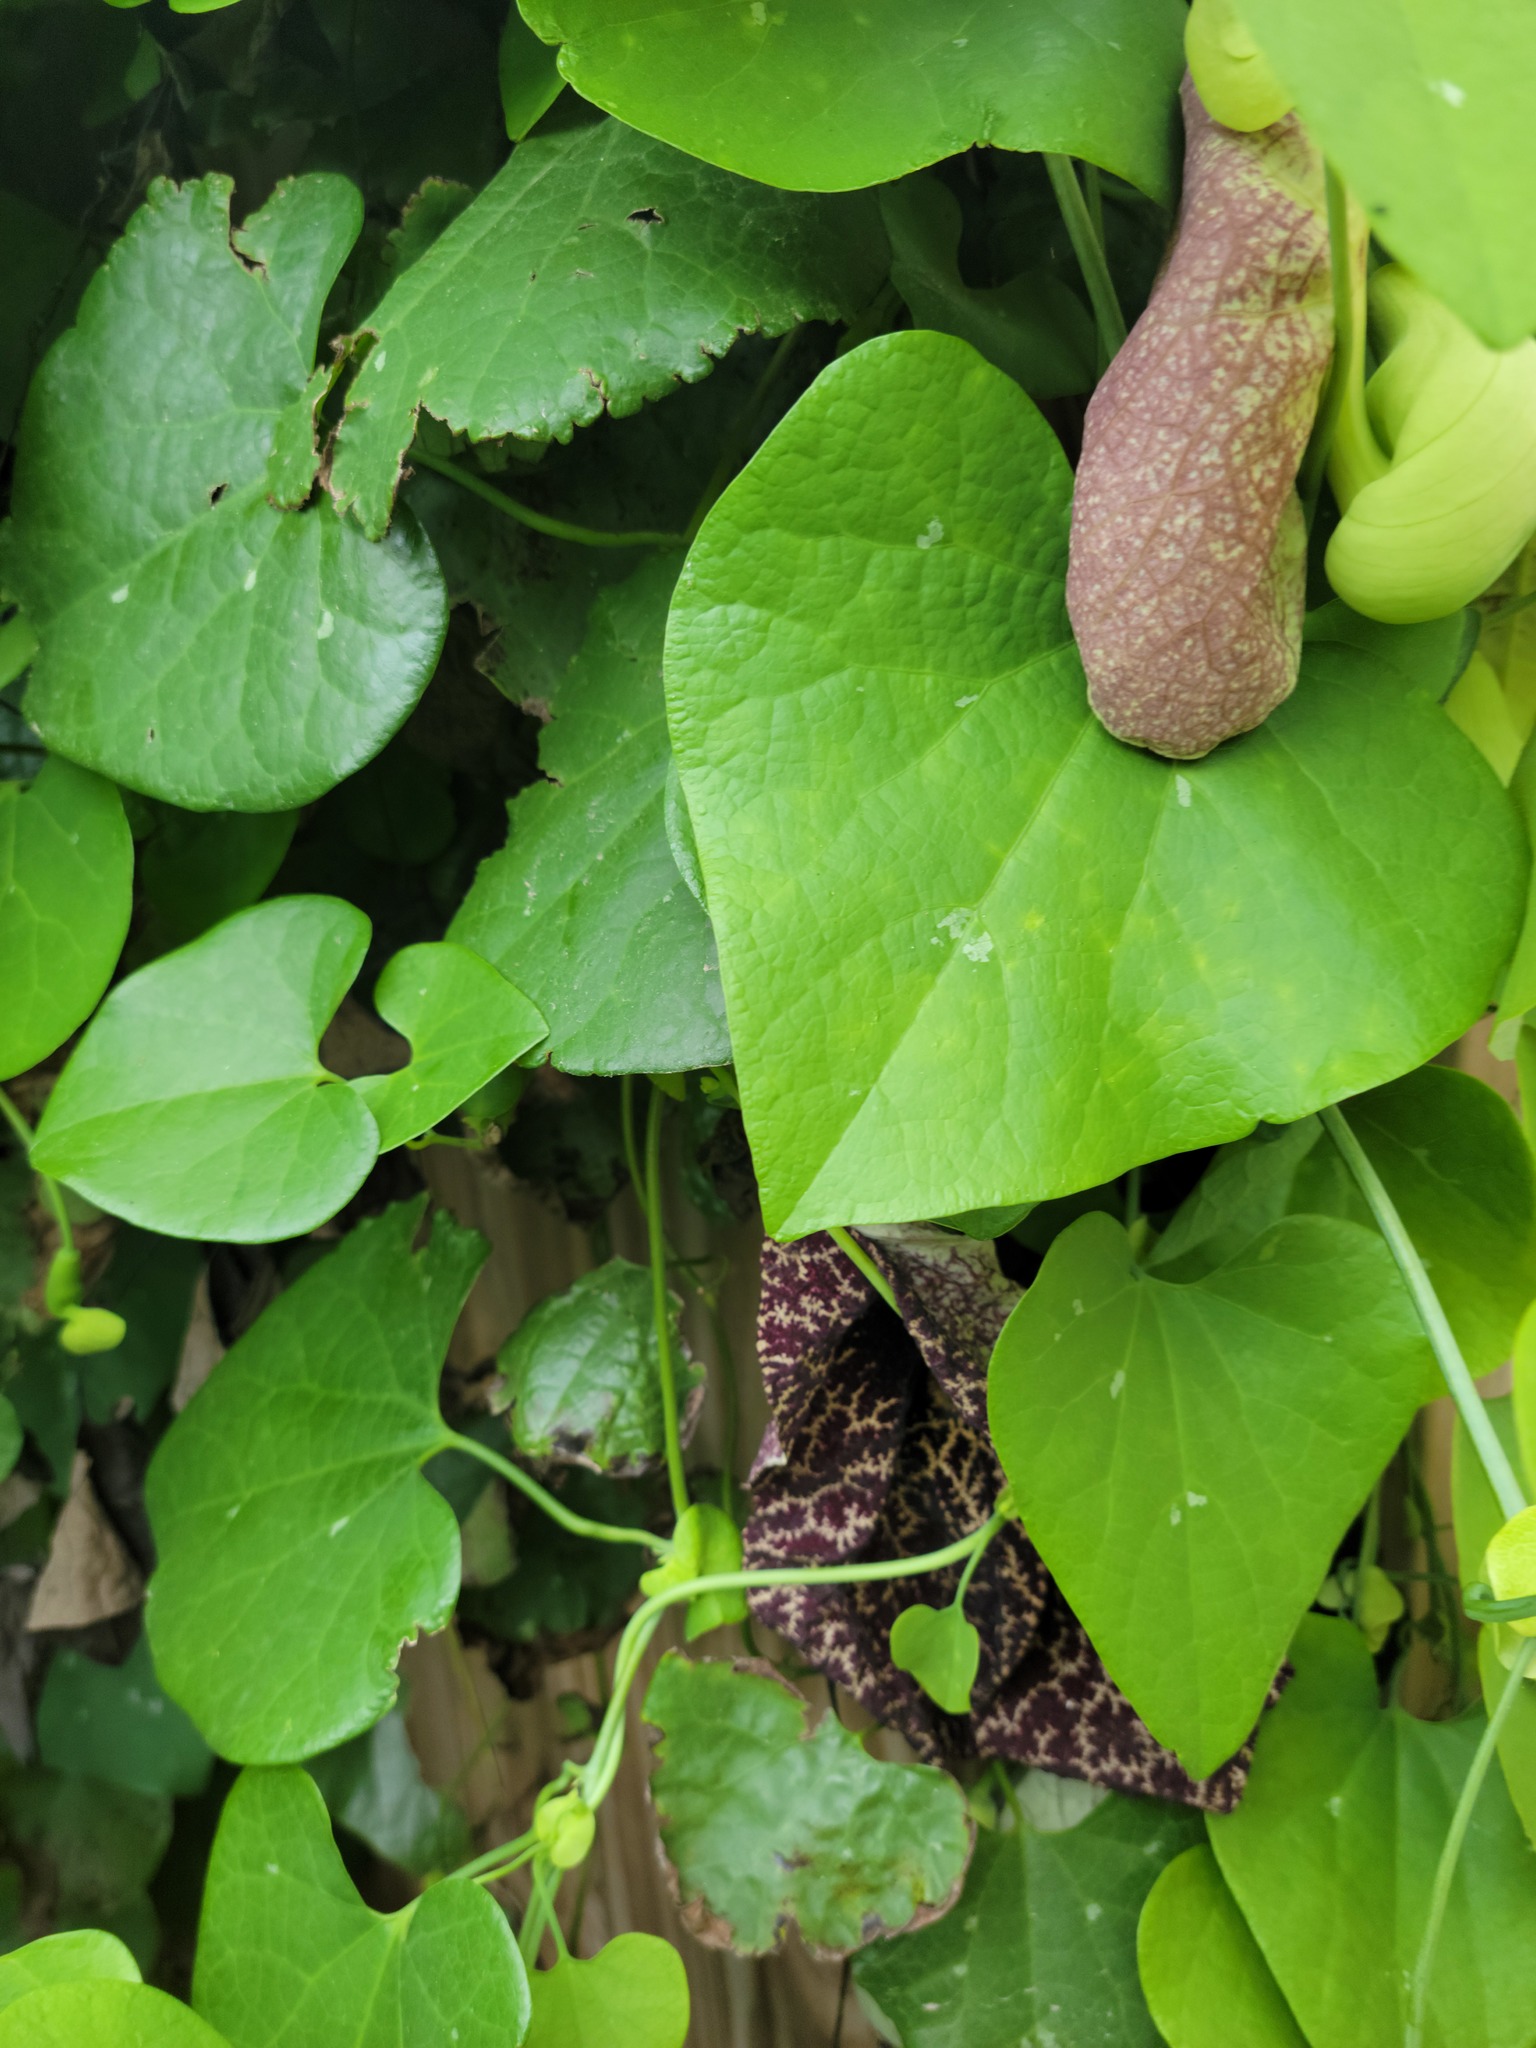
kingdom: Plantae
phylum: Tracheophyta
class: Magnoliopsida
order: Piperales
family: Aristolochiaceae
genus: Aristolochia
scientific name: Aristolochia gigantea
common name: Duckflower
